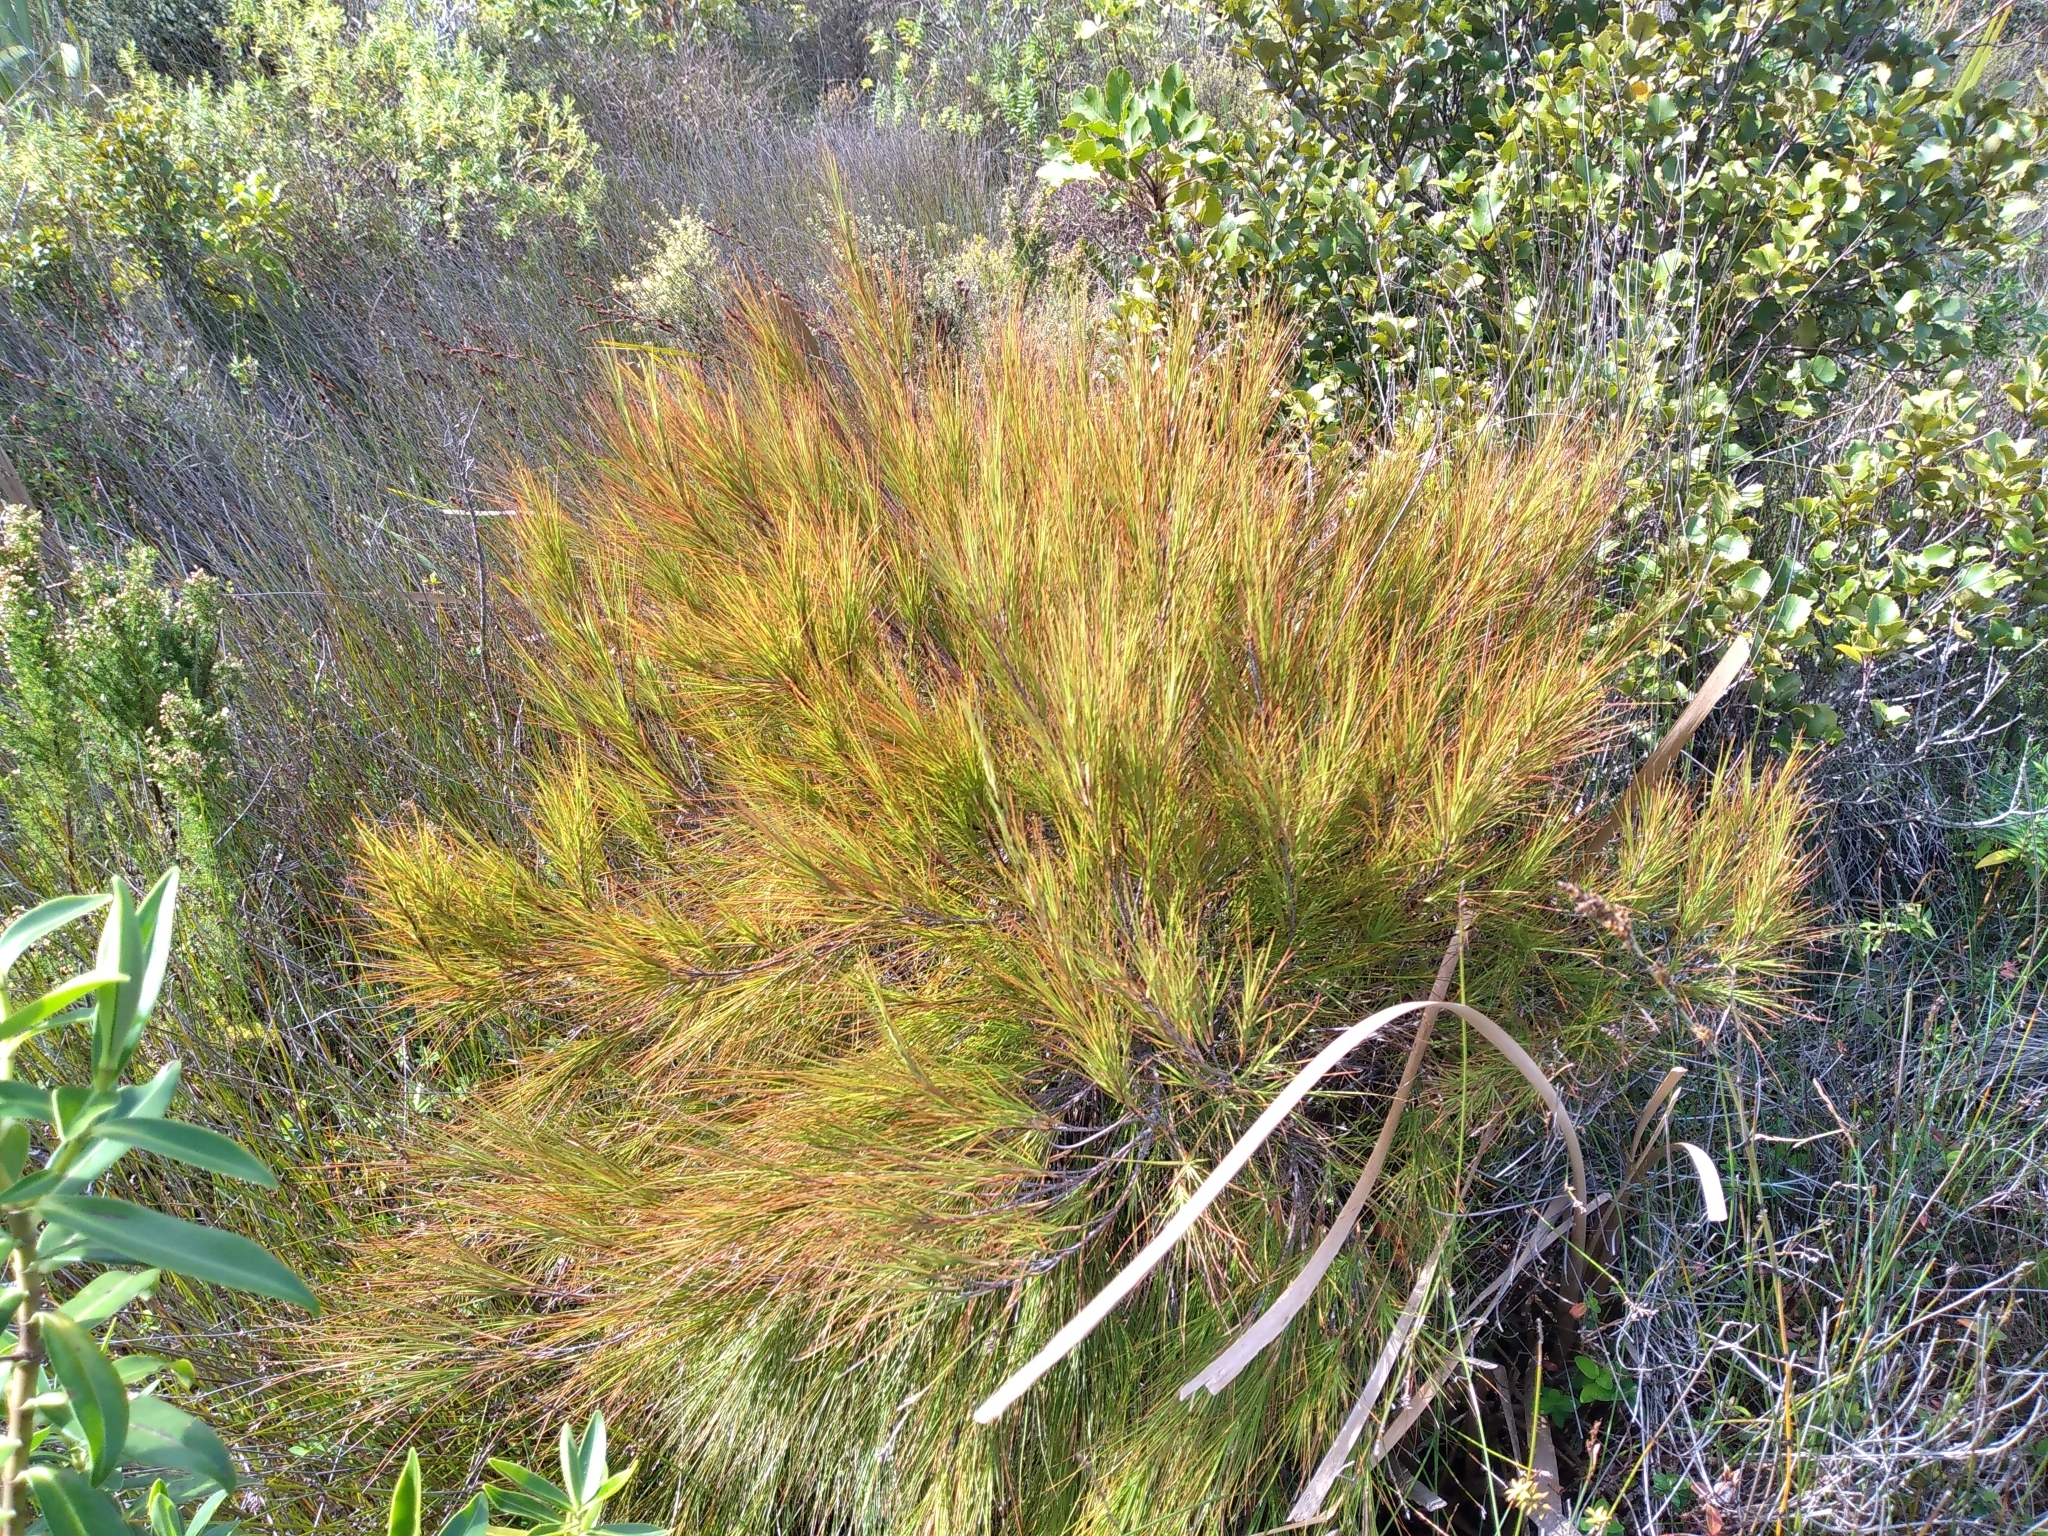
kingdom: Plantae
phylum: Tracheophyta
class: Magnoliopsida
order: Ericales
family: Ericaceae
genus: Dracophyllum
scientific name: Dracophyllum filifolium
